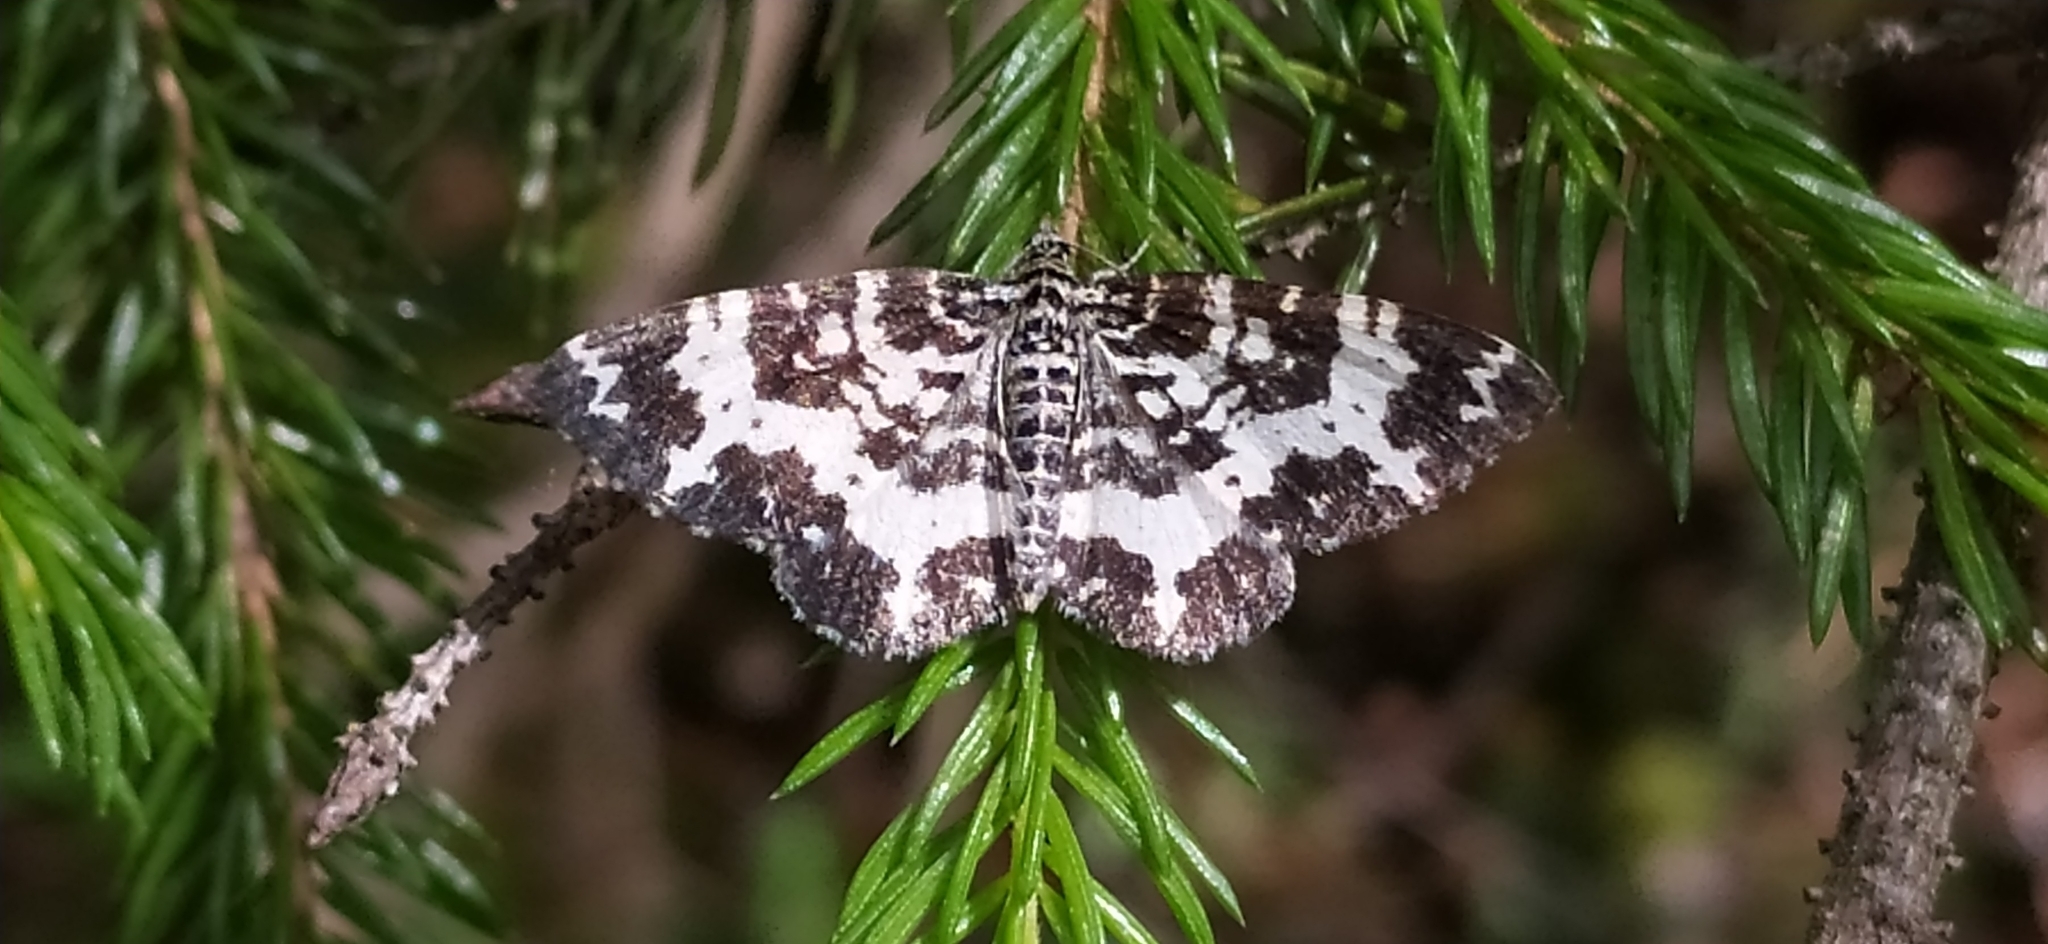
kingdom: Animalia
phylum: Arthropoda
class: Insecta
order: Lepidoptera
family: Geometridae
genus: Rheumaptera
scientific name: Rheumaptera hastata
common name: Argent & sable
